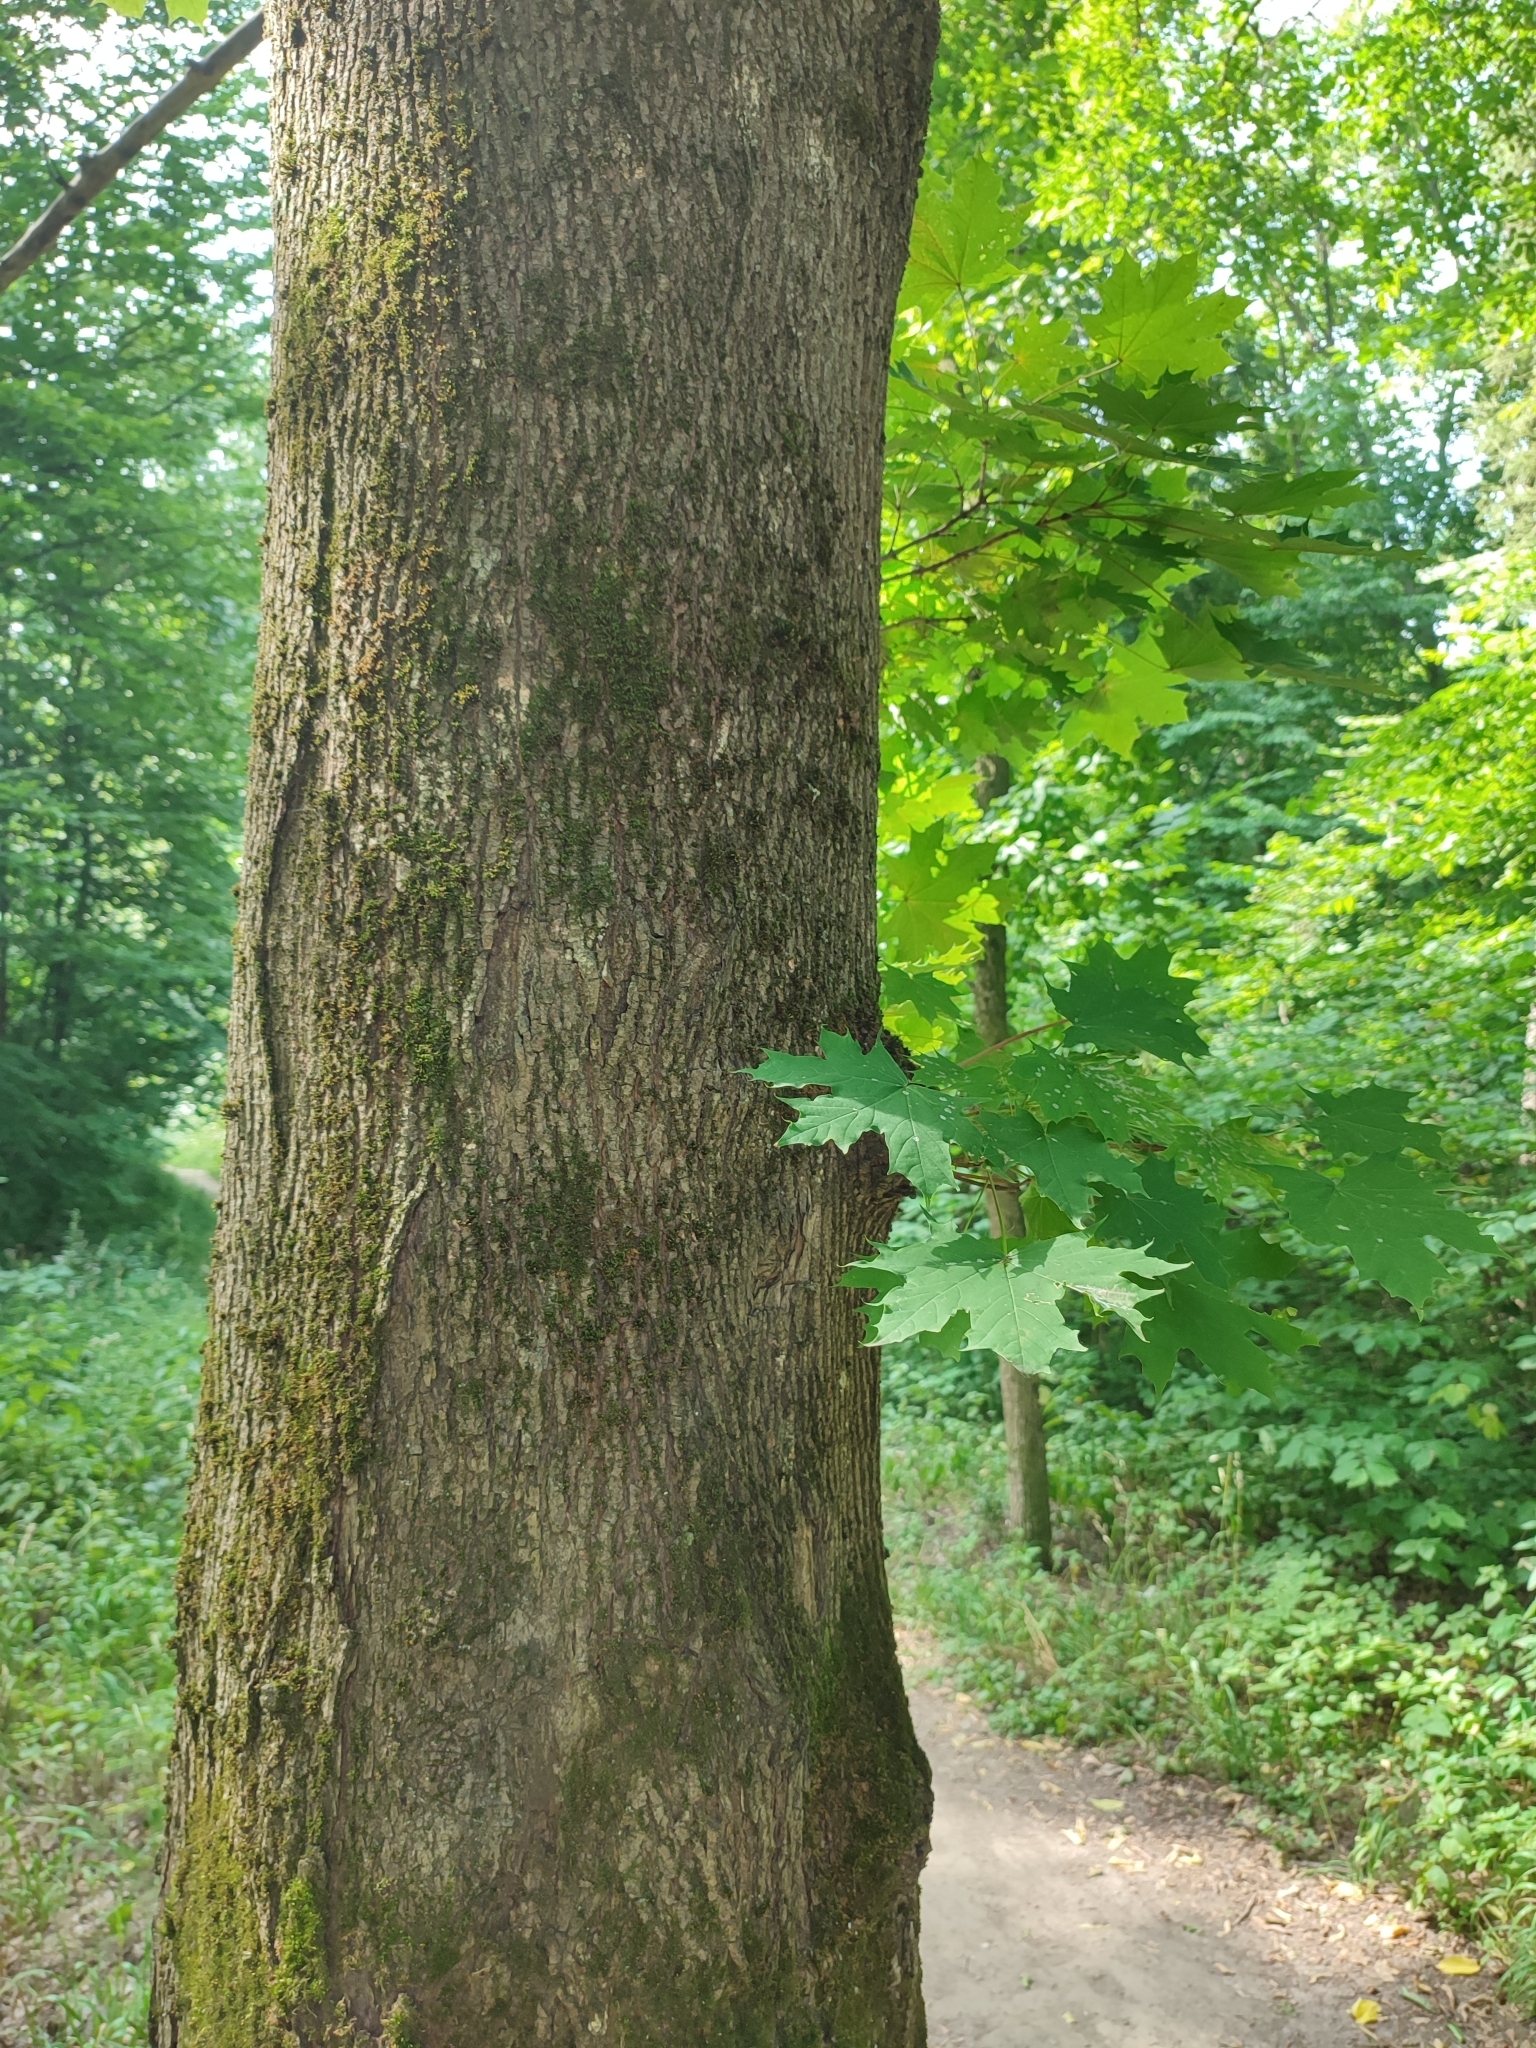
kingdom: Plantae
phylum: Tracheophyta
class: Magnoliopsida
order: Sapindales
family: Sapindaceae
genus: Acer
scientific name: Acer platanoides
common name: Norway maple
